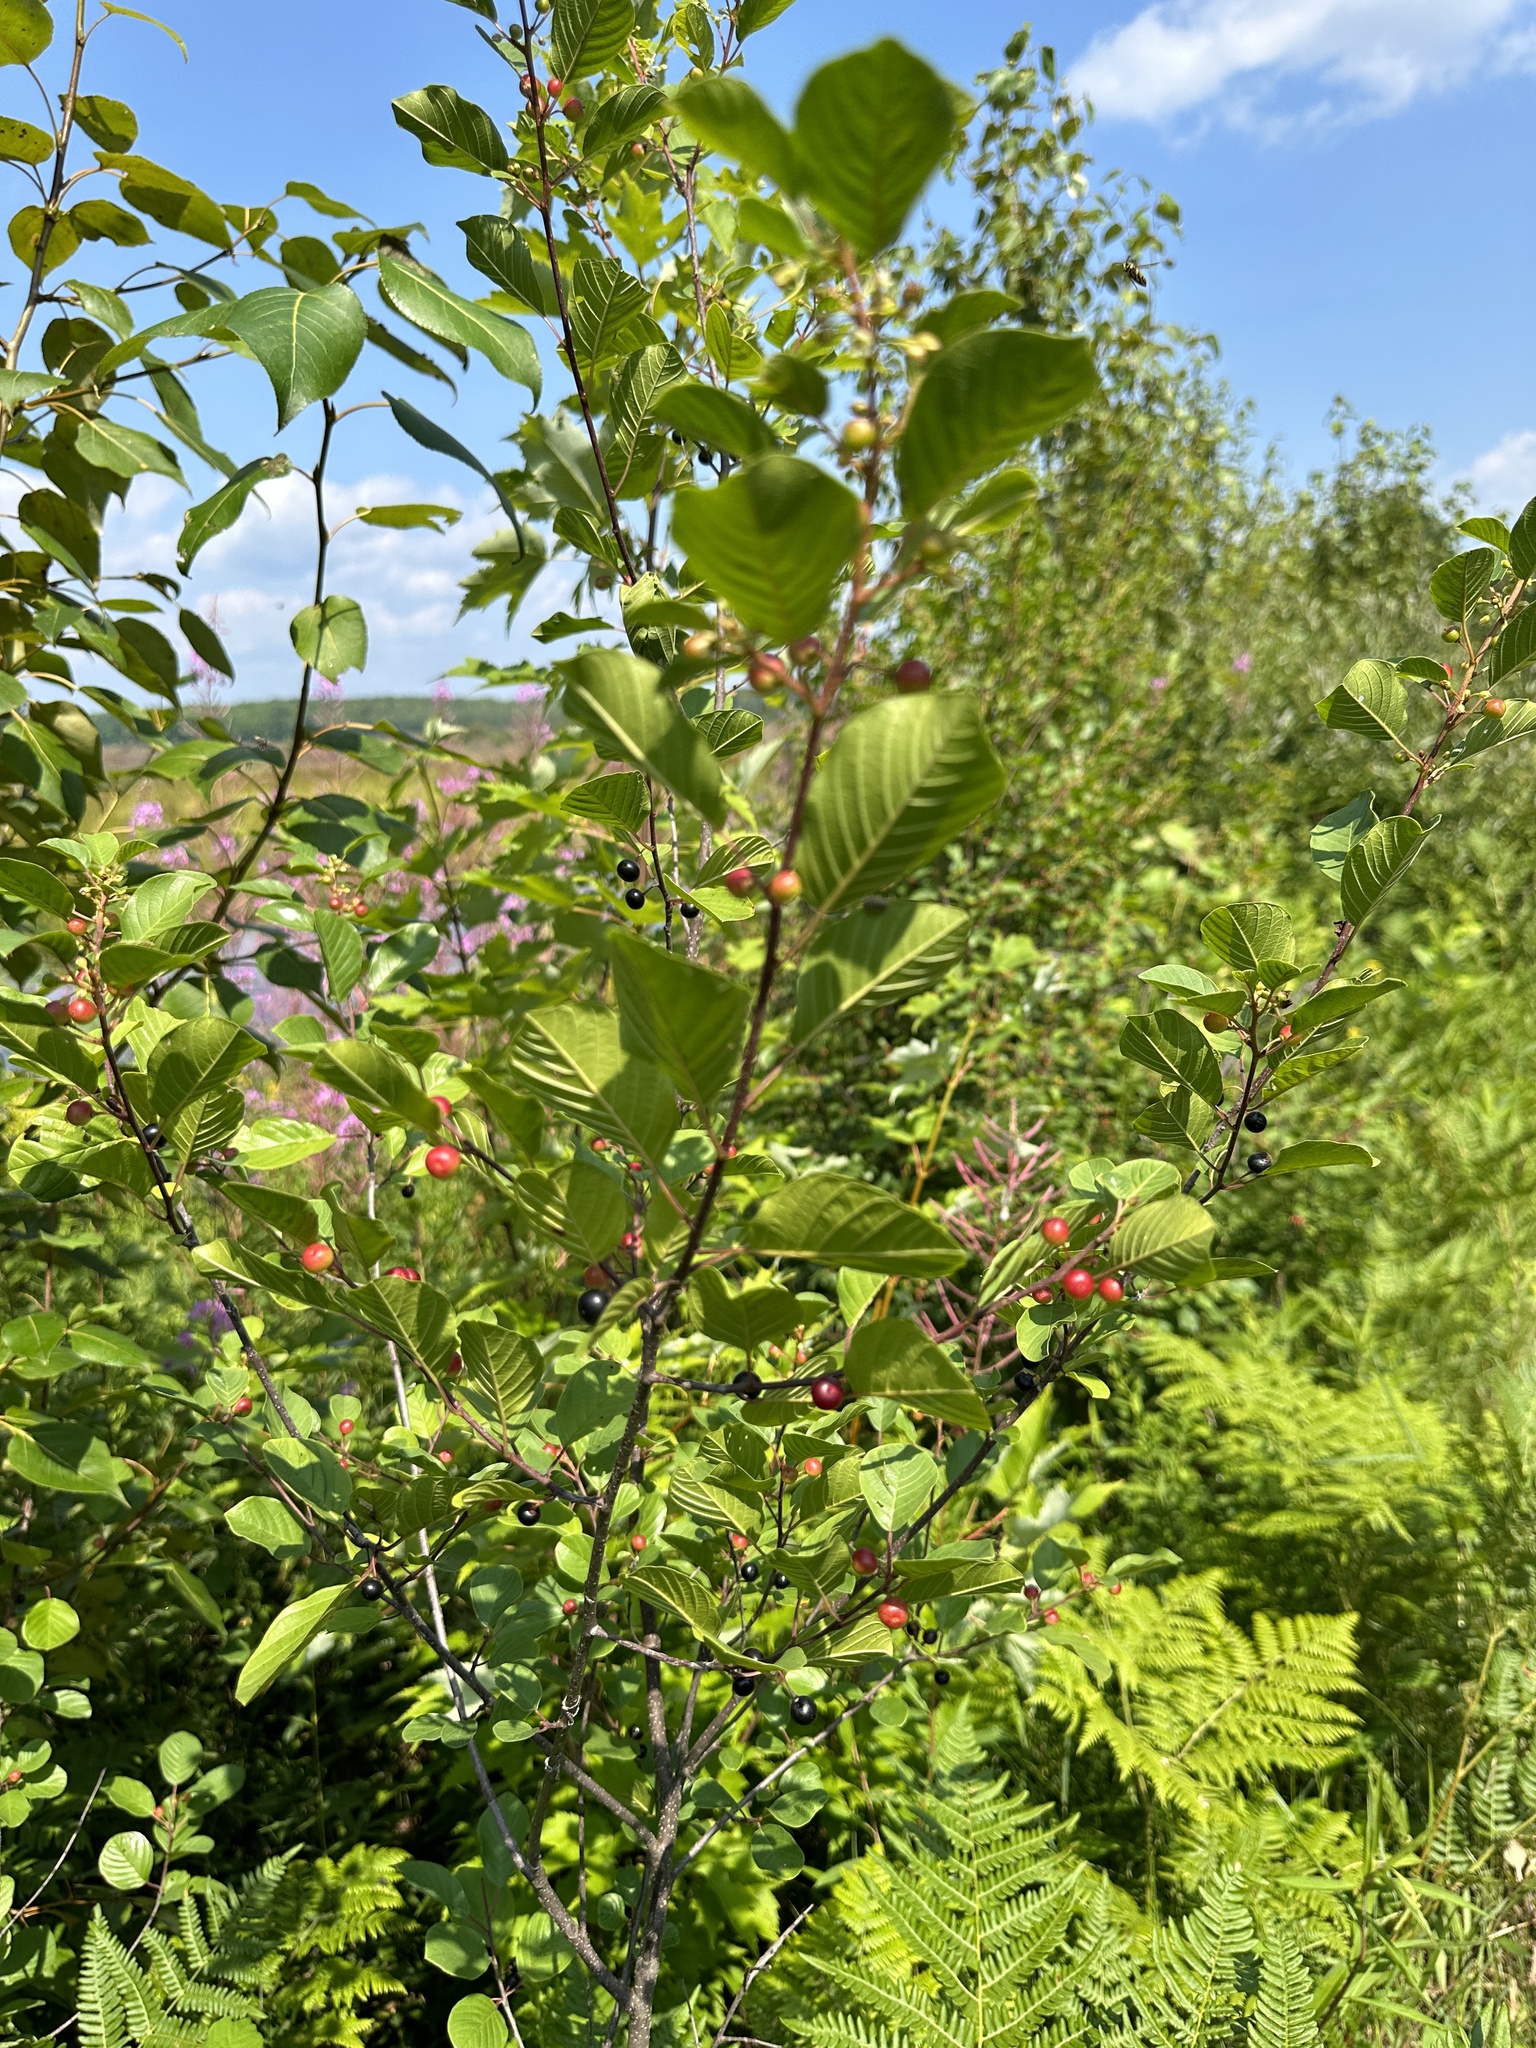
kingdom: Plantae
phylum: Tracheophyta
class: Magnoliopsida
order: Rosales
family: Rhamnaceae
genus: Frangula
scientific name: Frangula alnus
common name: Alder buckthorn
